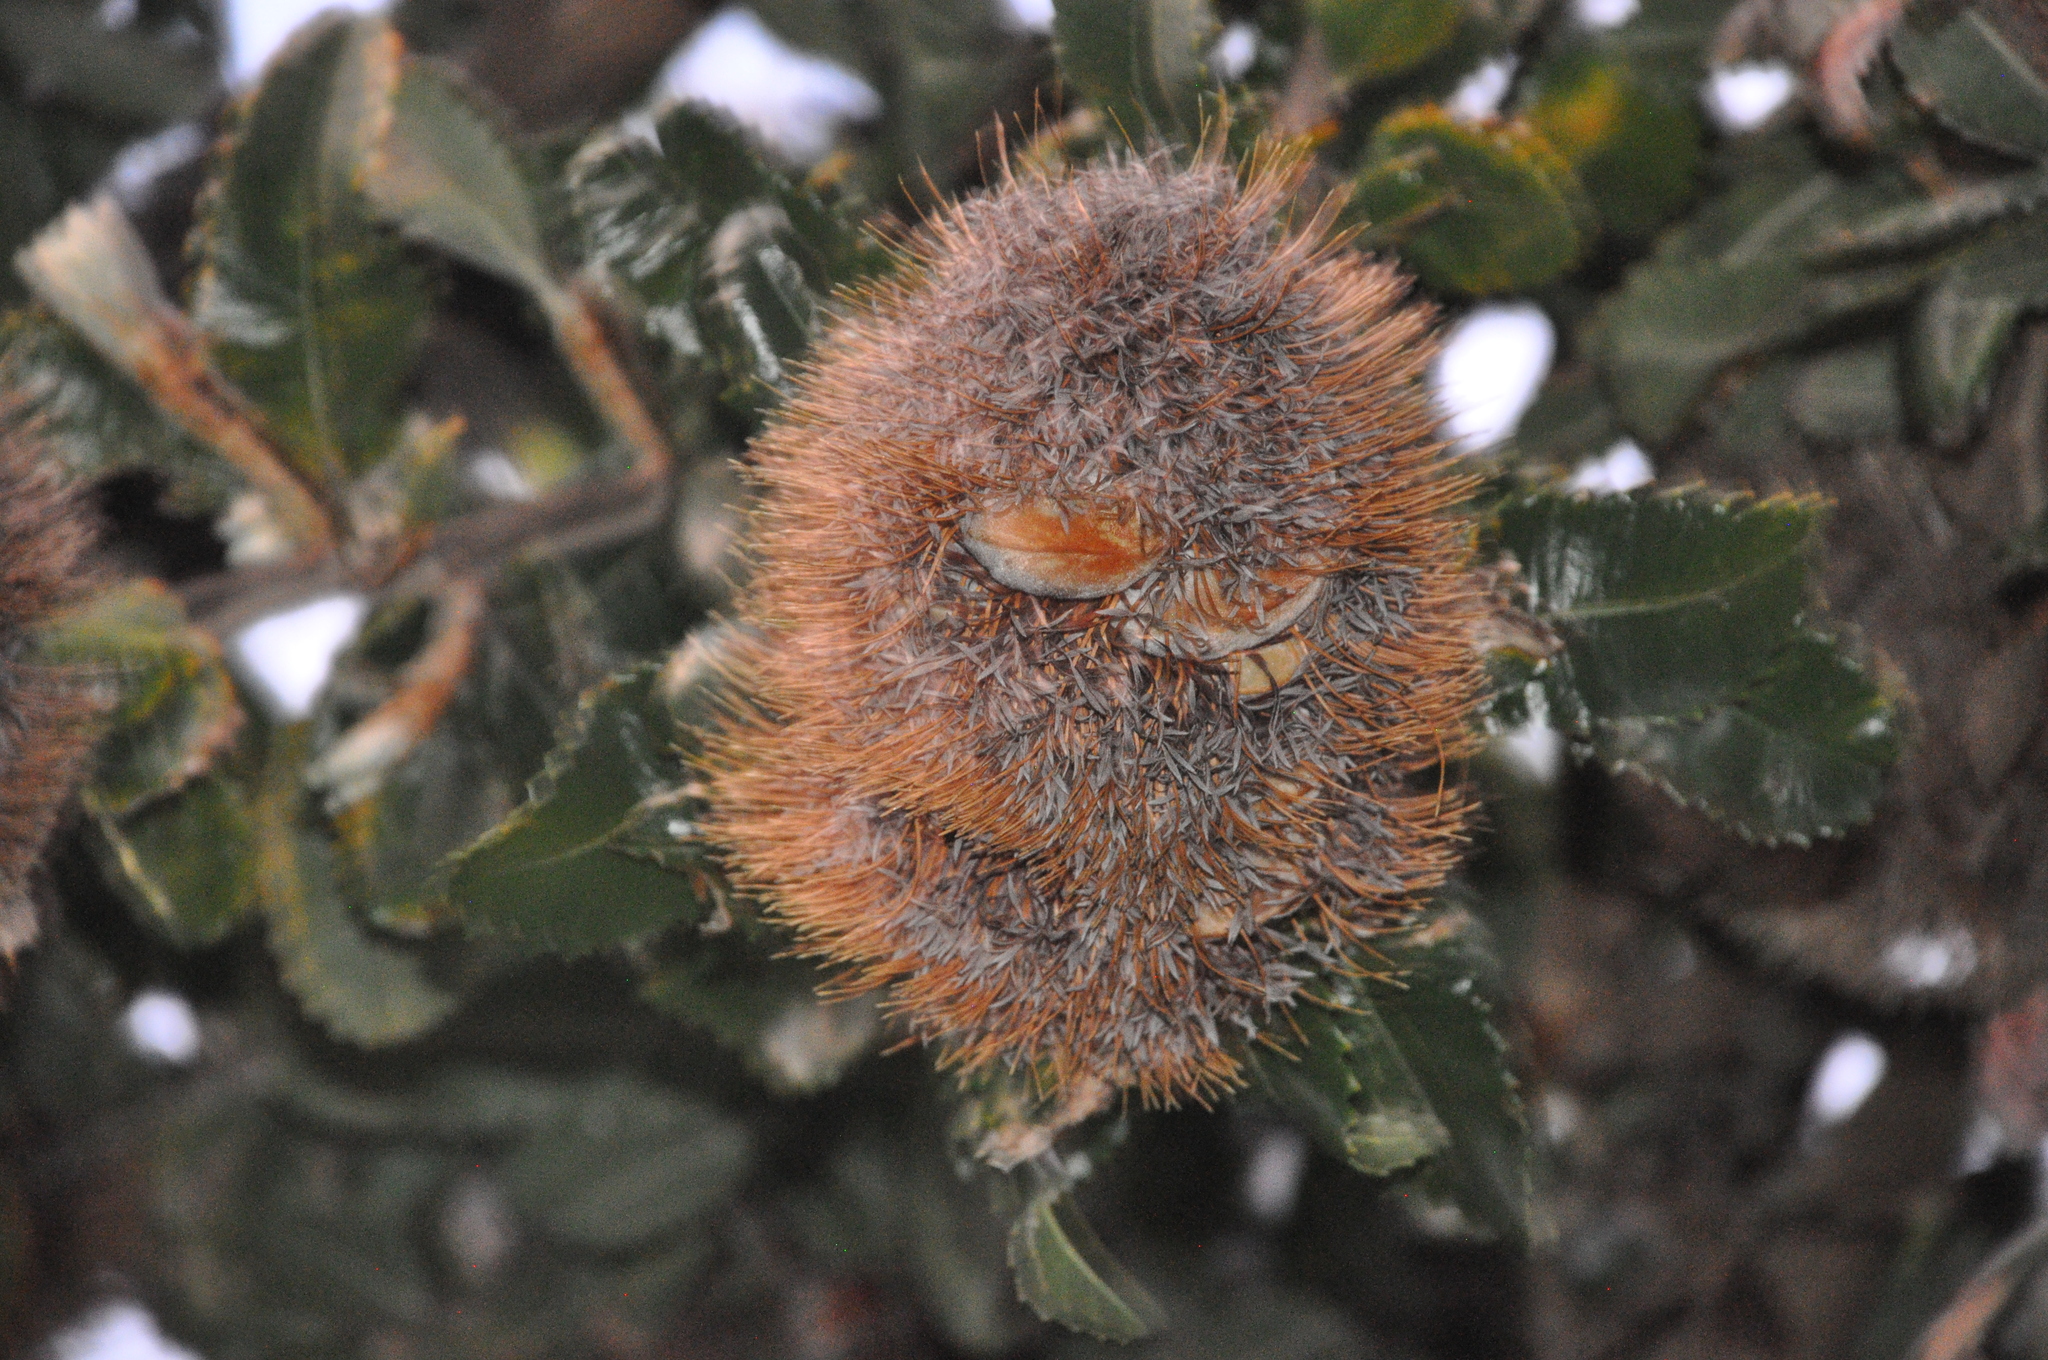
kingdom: Plantae
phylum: Tracheophyta
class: Magnoliopsida
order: Proteales
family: Proteaceae
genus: Banksia
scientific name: Banksia integrifolia
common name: White-honeysuckle
